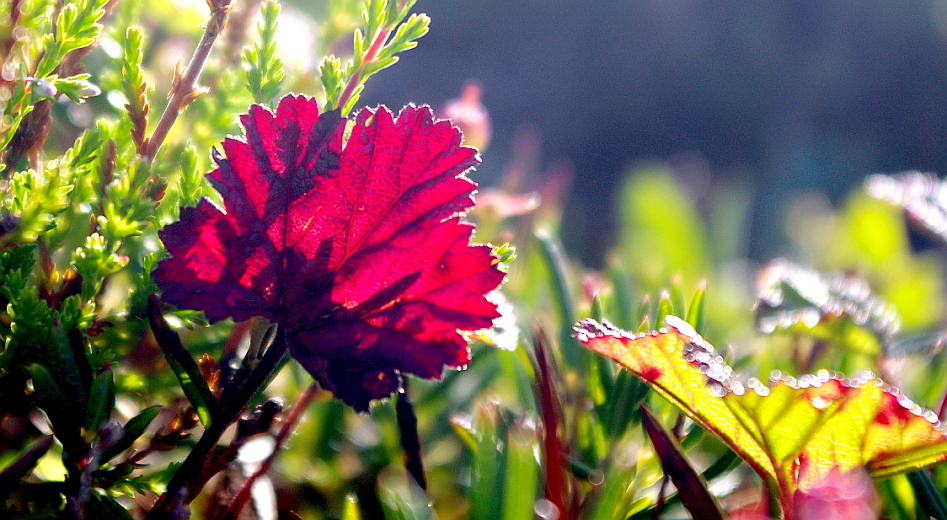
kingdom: Plantae
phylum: Tracheophyta
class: Magnoliopsida
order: Rosales
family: Rosaceae
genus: Rubus
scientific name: Rubus chamaemorus
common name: Cloudberry
